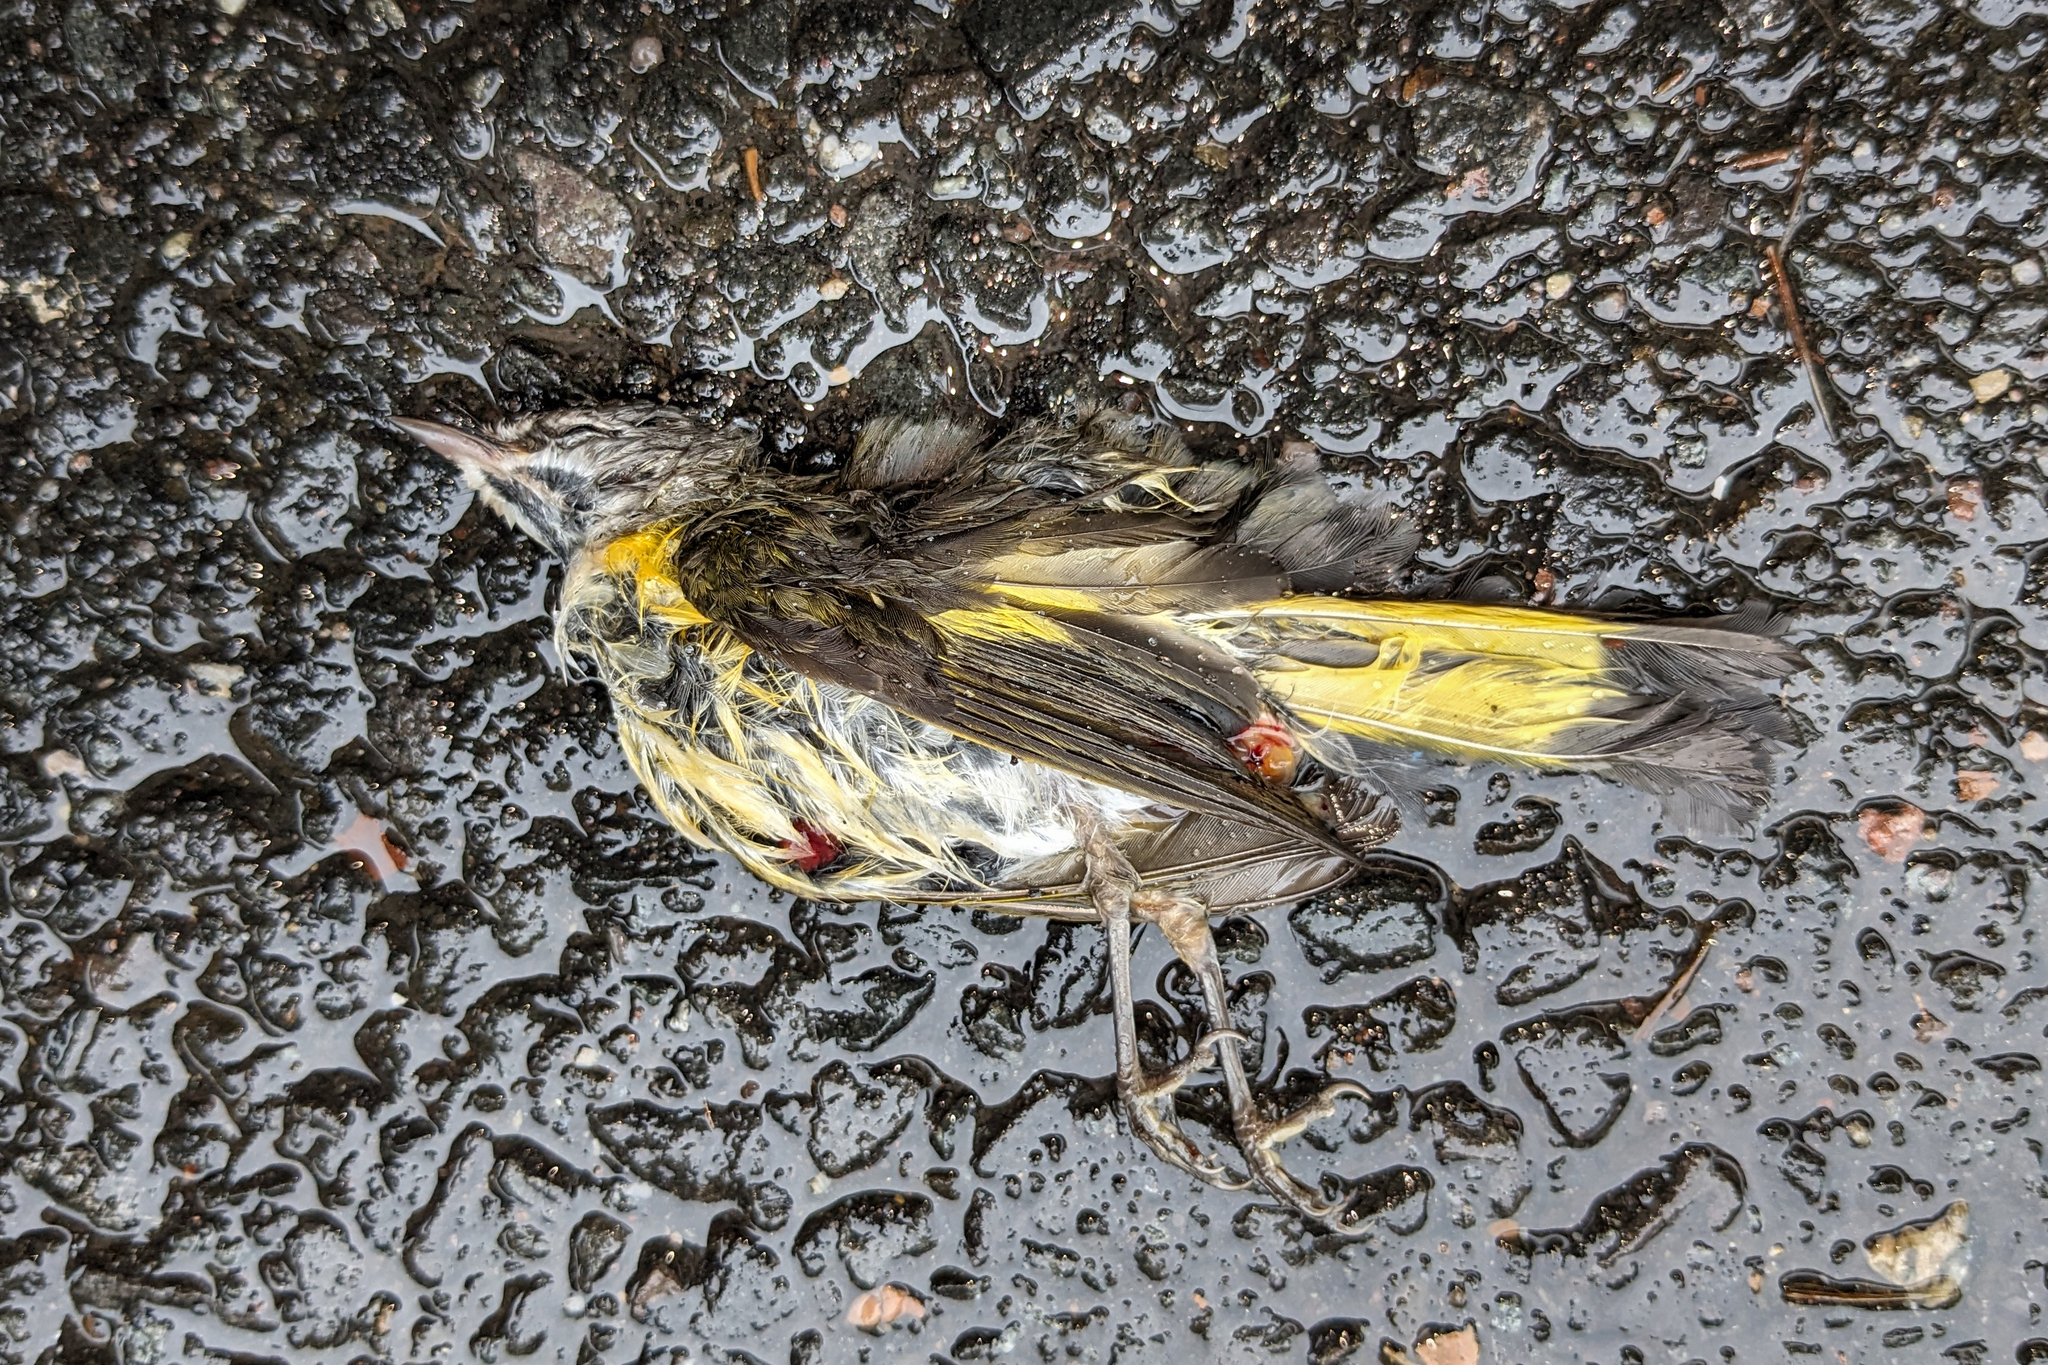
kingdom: Animalia
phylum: Chordata
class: Aves
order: Passeriformes
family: Parulidae
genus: Setophaga
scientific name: Setophaga ruticilla
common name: American redstart
